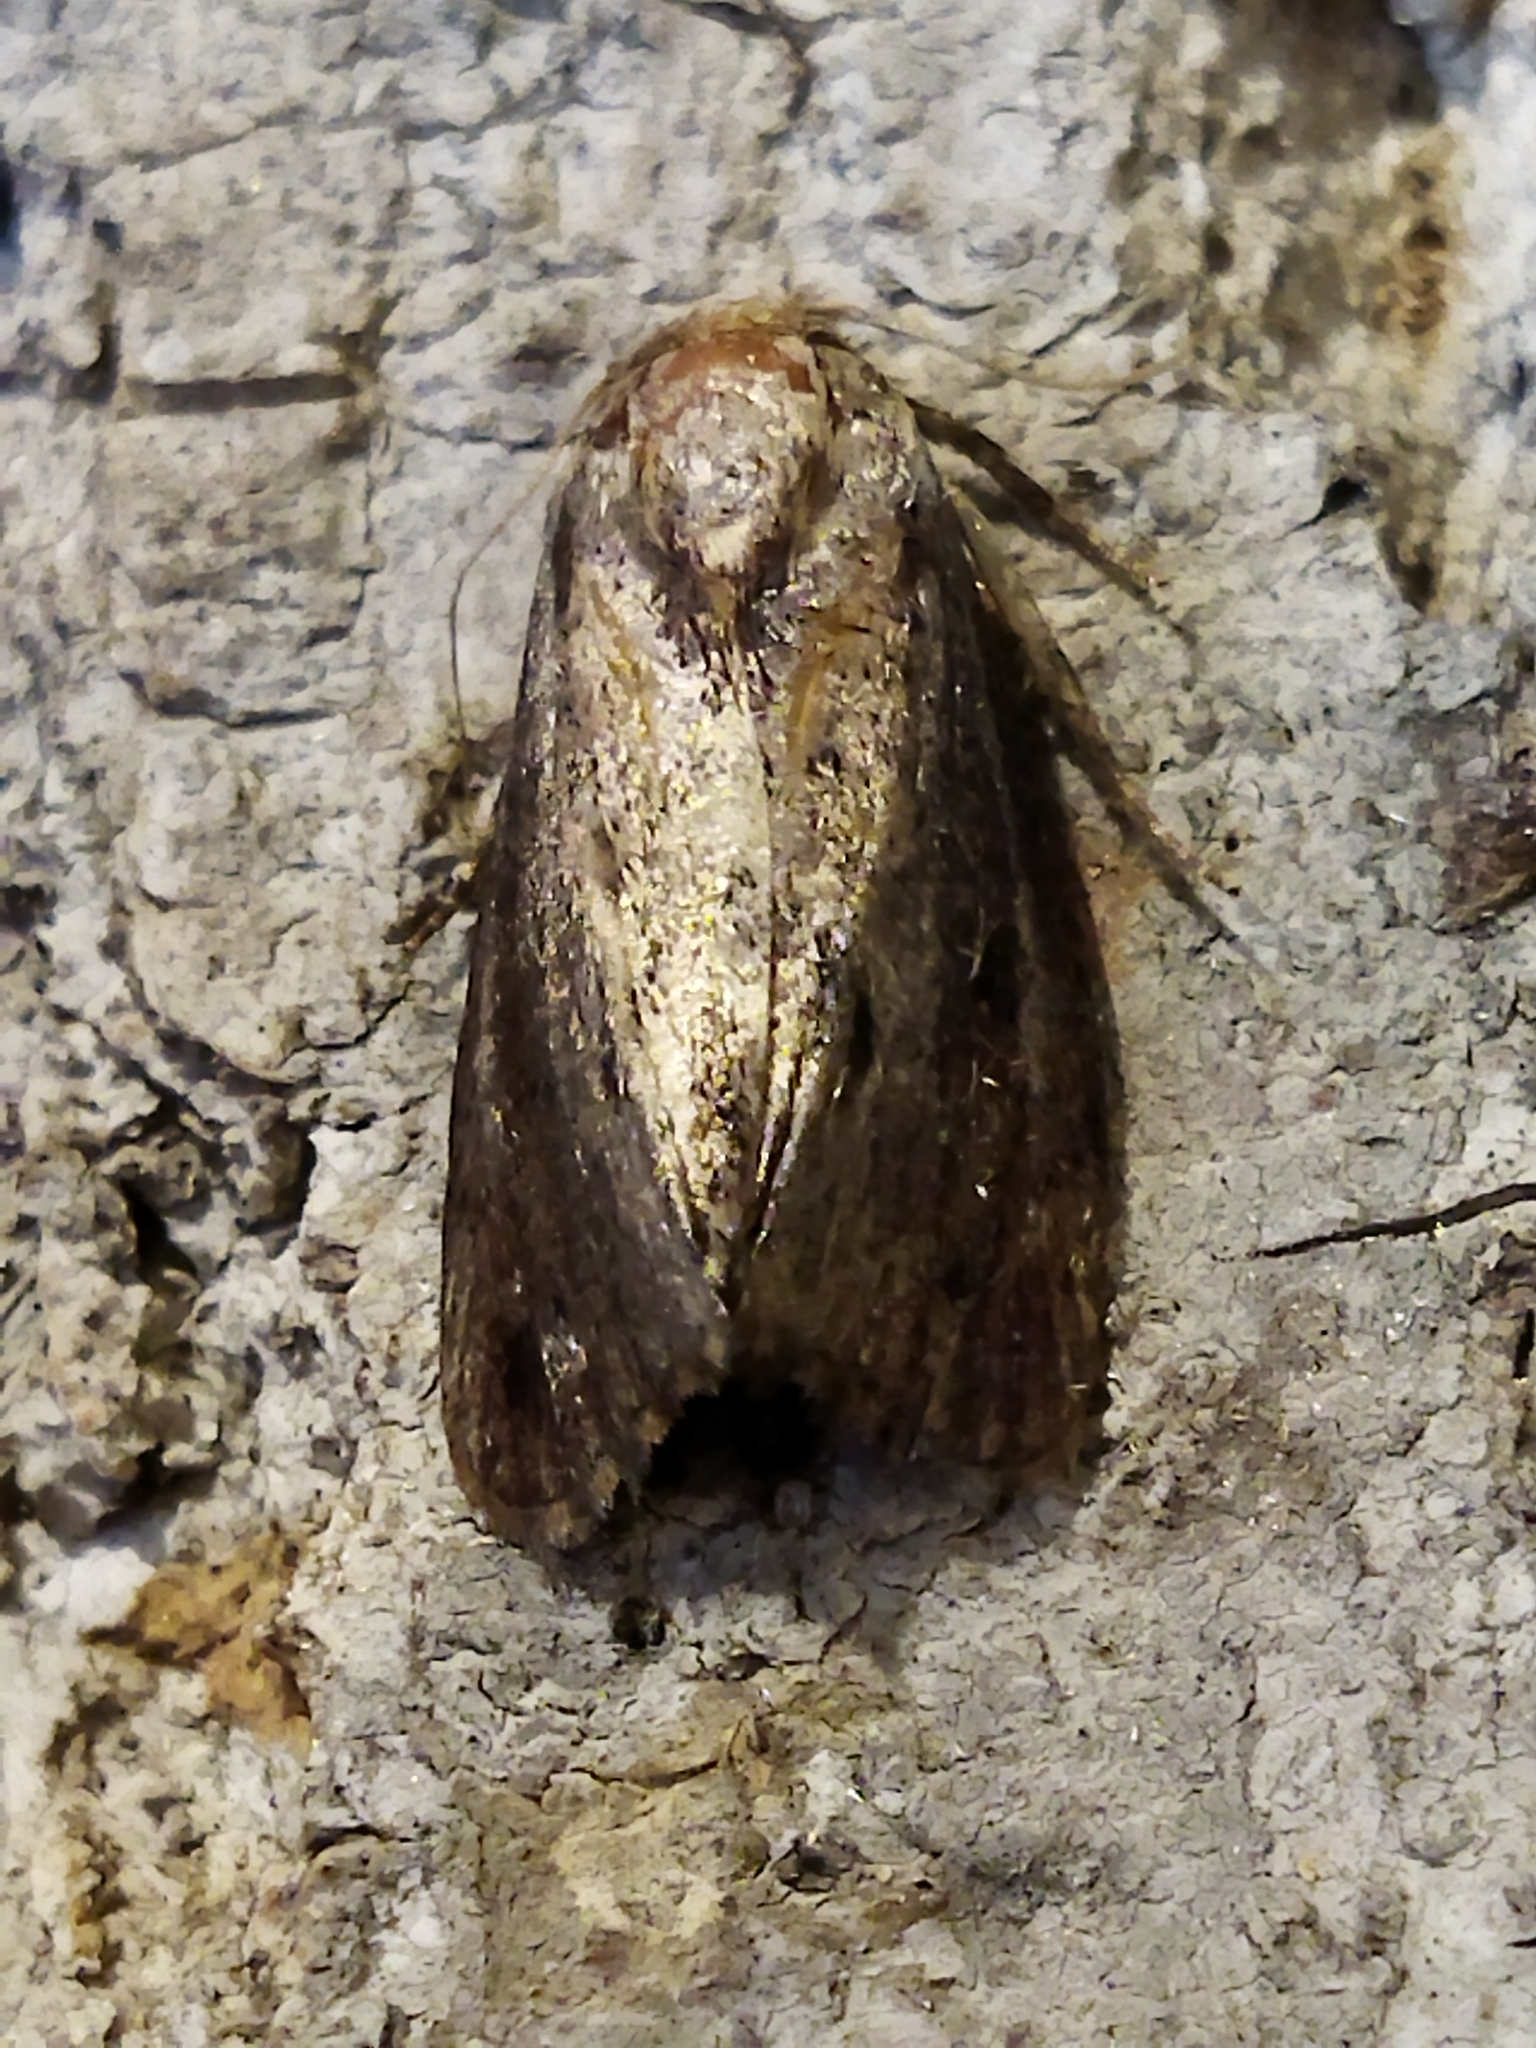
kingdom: Animalia
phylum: Arthropoda
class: Insecta
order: Lepidoptera
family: Pyralidae
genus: Galleria
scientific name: Galleria mellonella
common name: Greater wax moth
